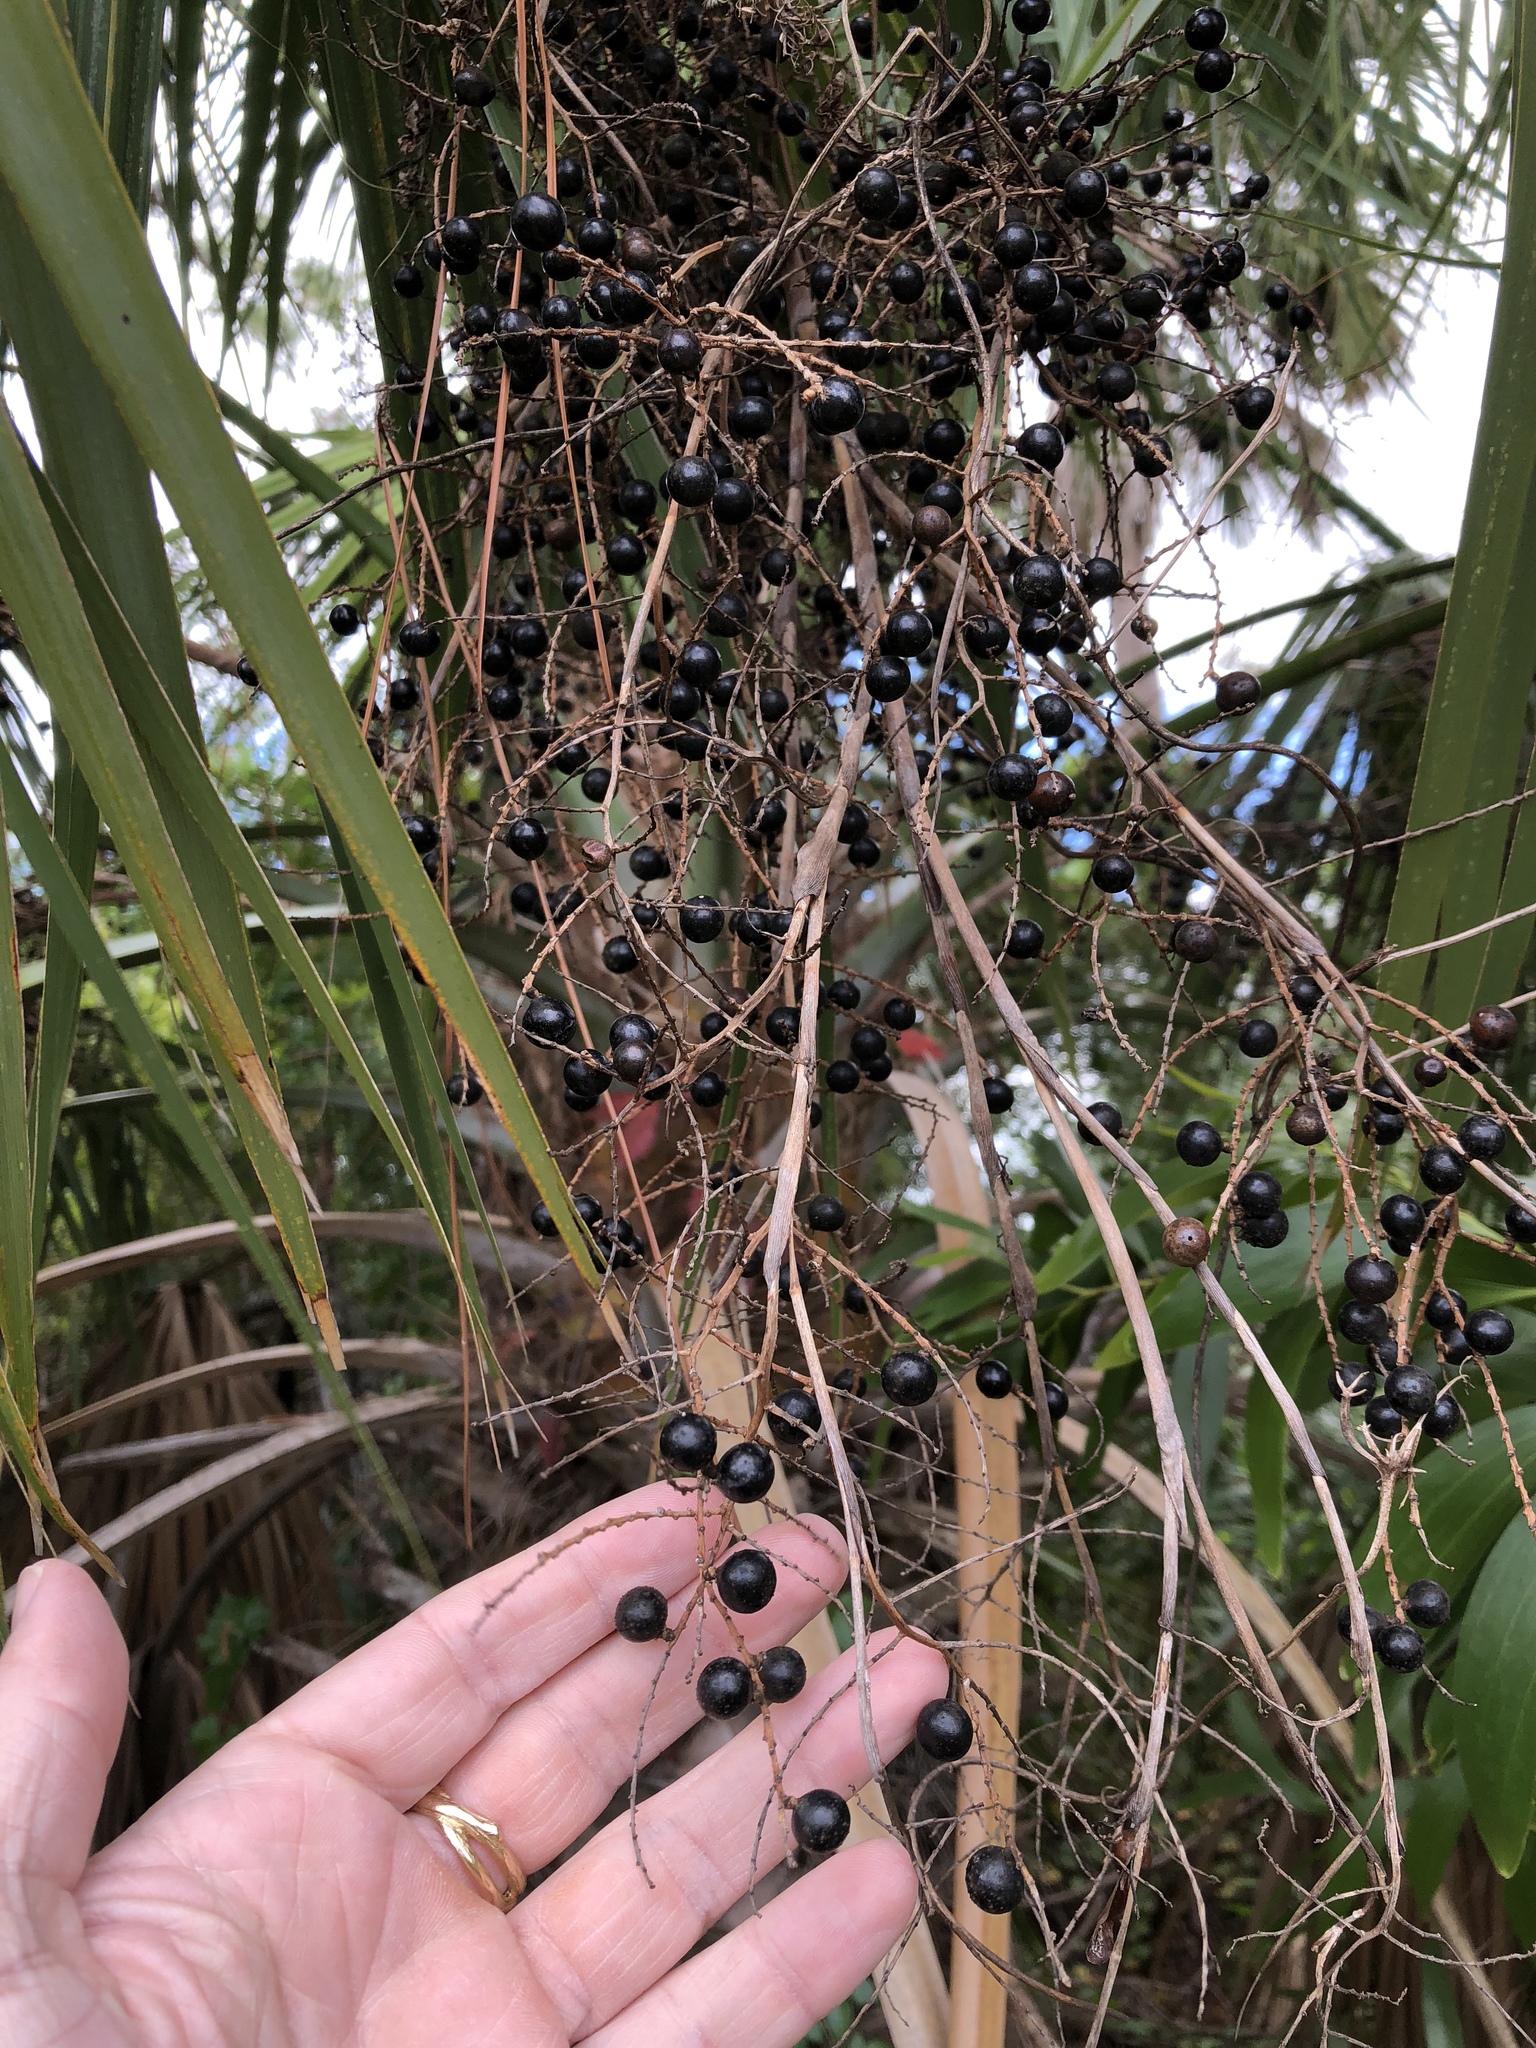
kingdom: Plantae
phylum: Tracheophyta
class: Liliopsida
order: Arecales
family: Arecaceae
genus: Sabal
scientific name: Sabal palmetto
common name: Blue palmetto
